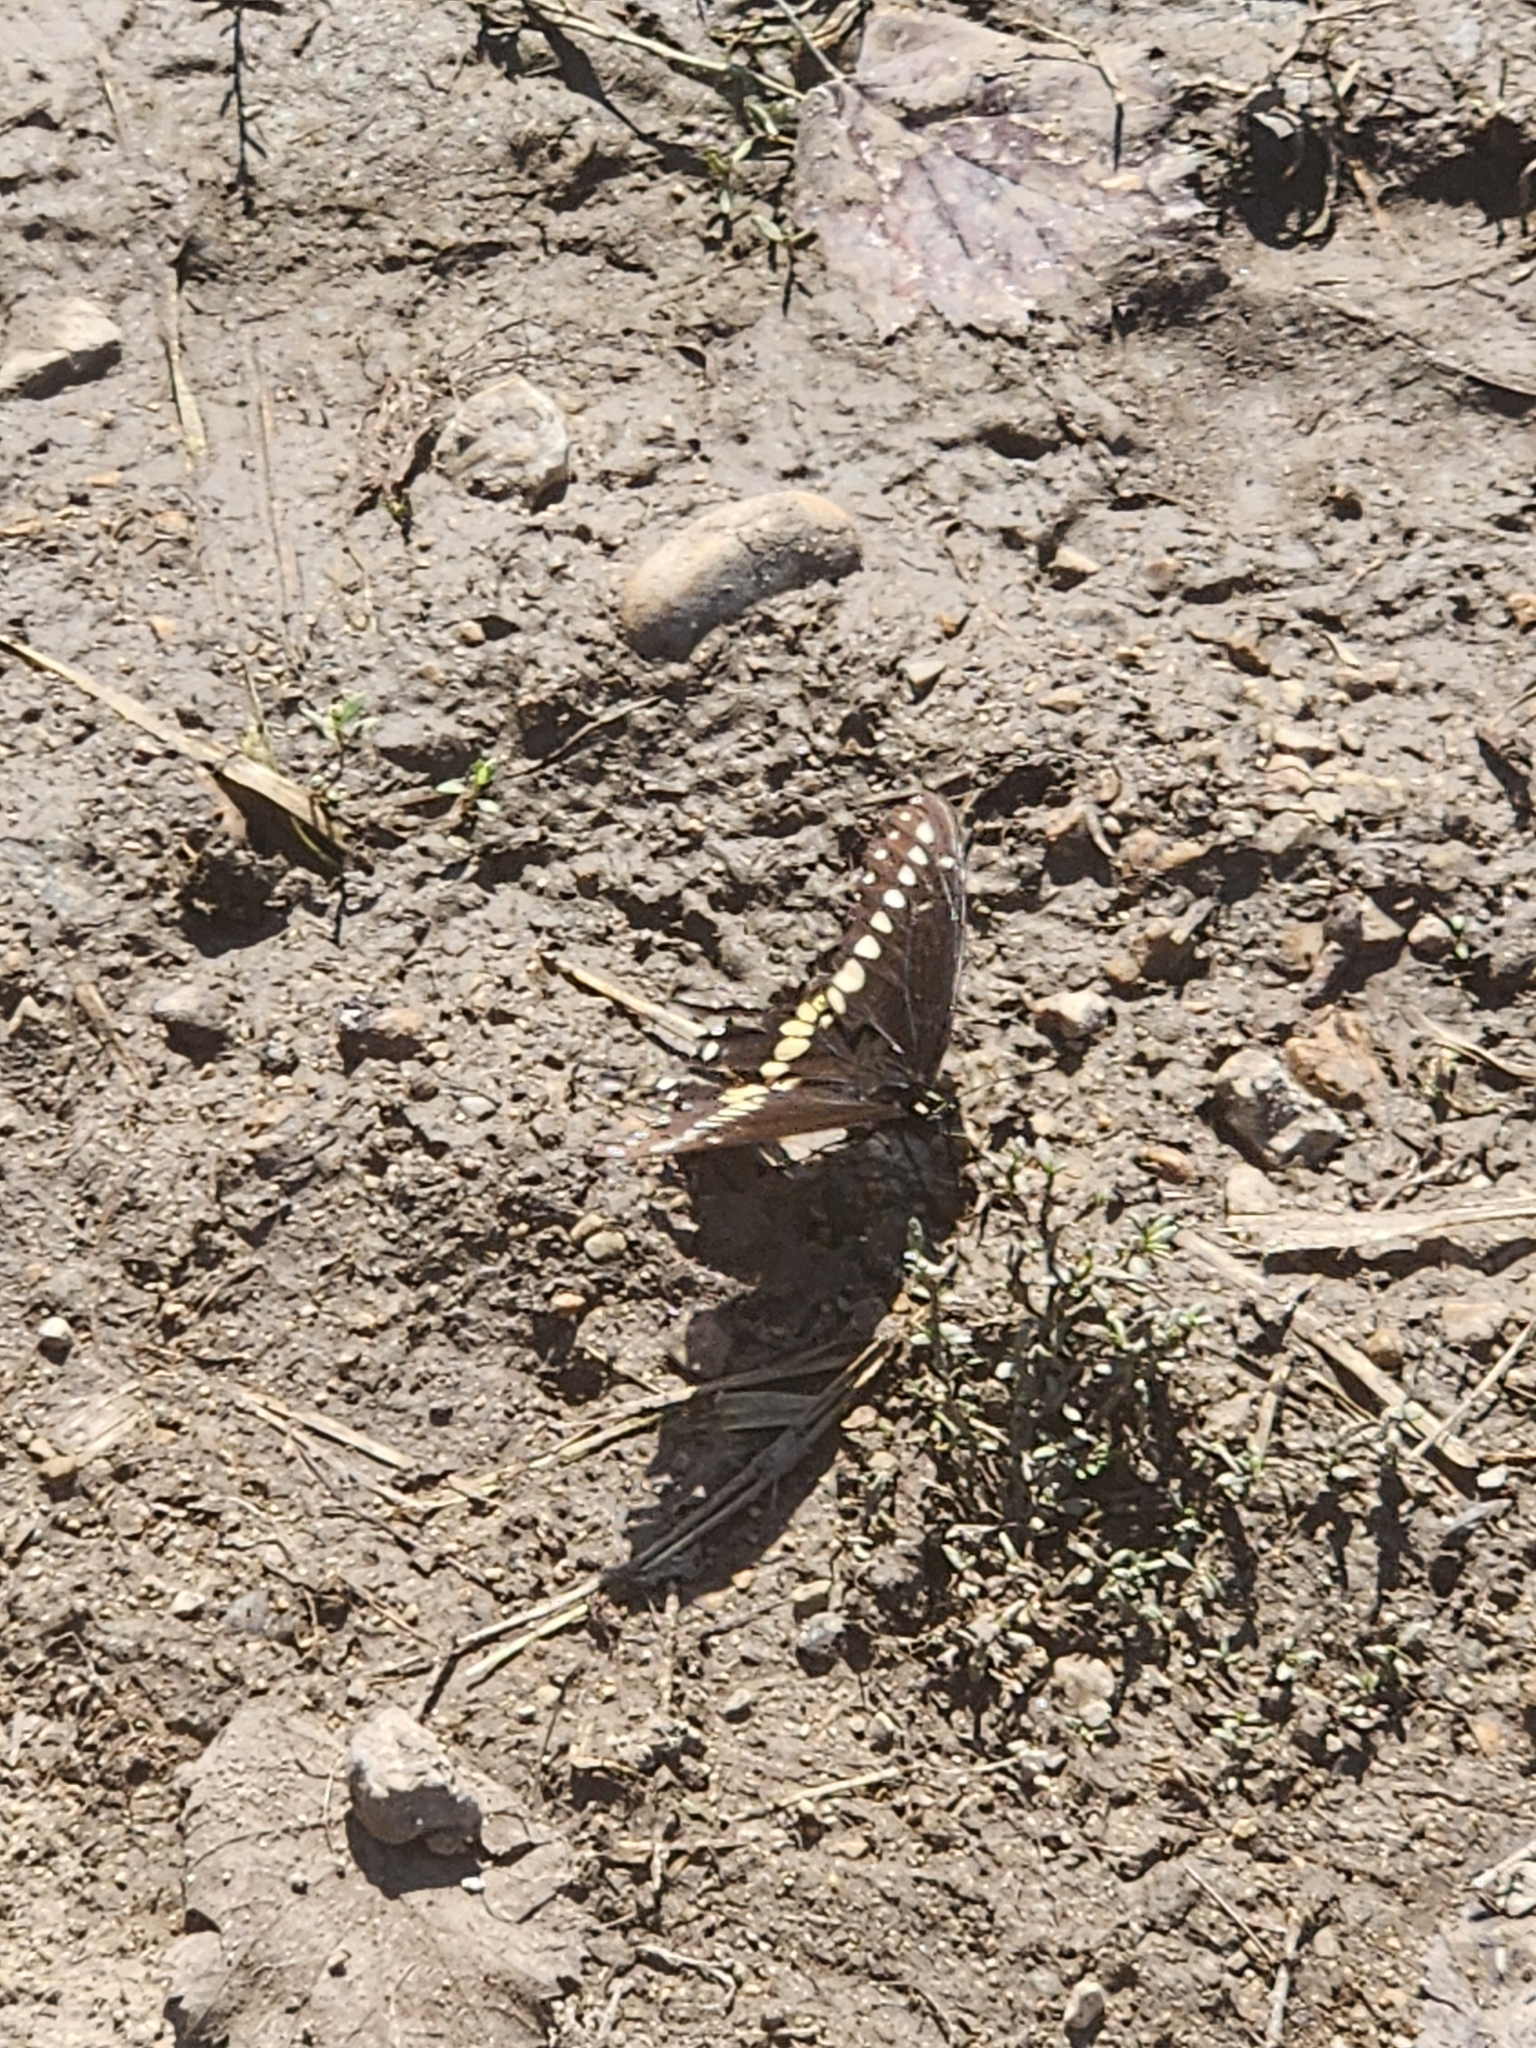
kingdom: Animalia
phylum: Arthropoda
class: Insecta
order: Lepidoptera
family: Papilionidae
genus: Papilio
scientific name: Papilio polyxenes
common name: Black swallowtail
